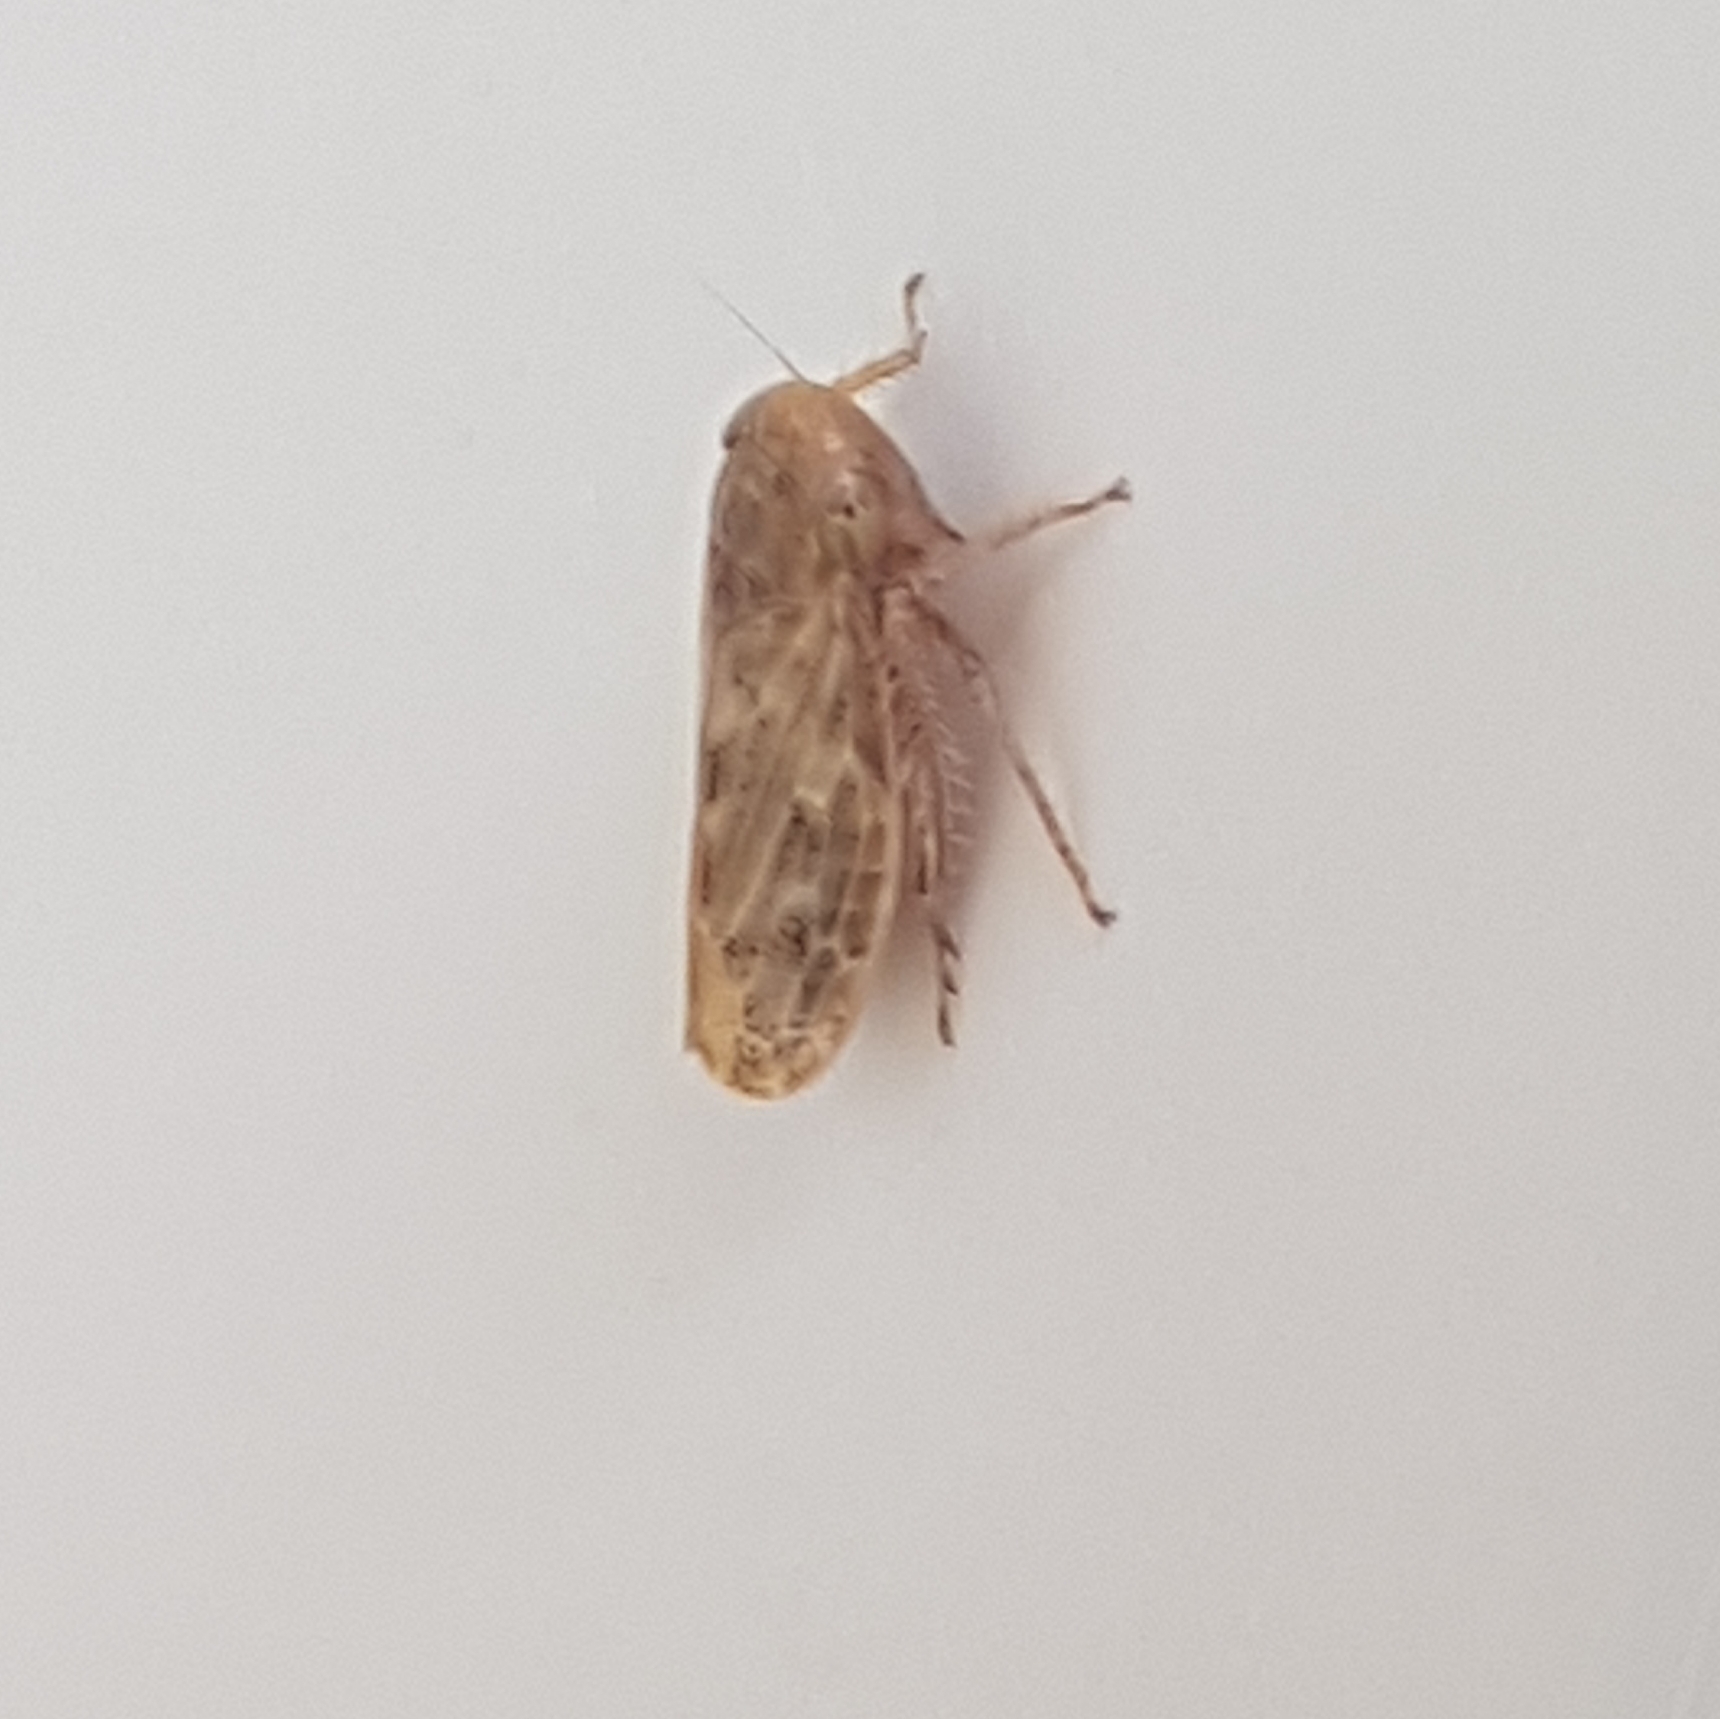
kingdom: Animalia
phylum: Arthropoda
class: Insecta
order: Hemiptera
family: Cicadellidae
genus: Euscelis
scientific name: Euscelis incisa
